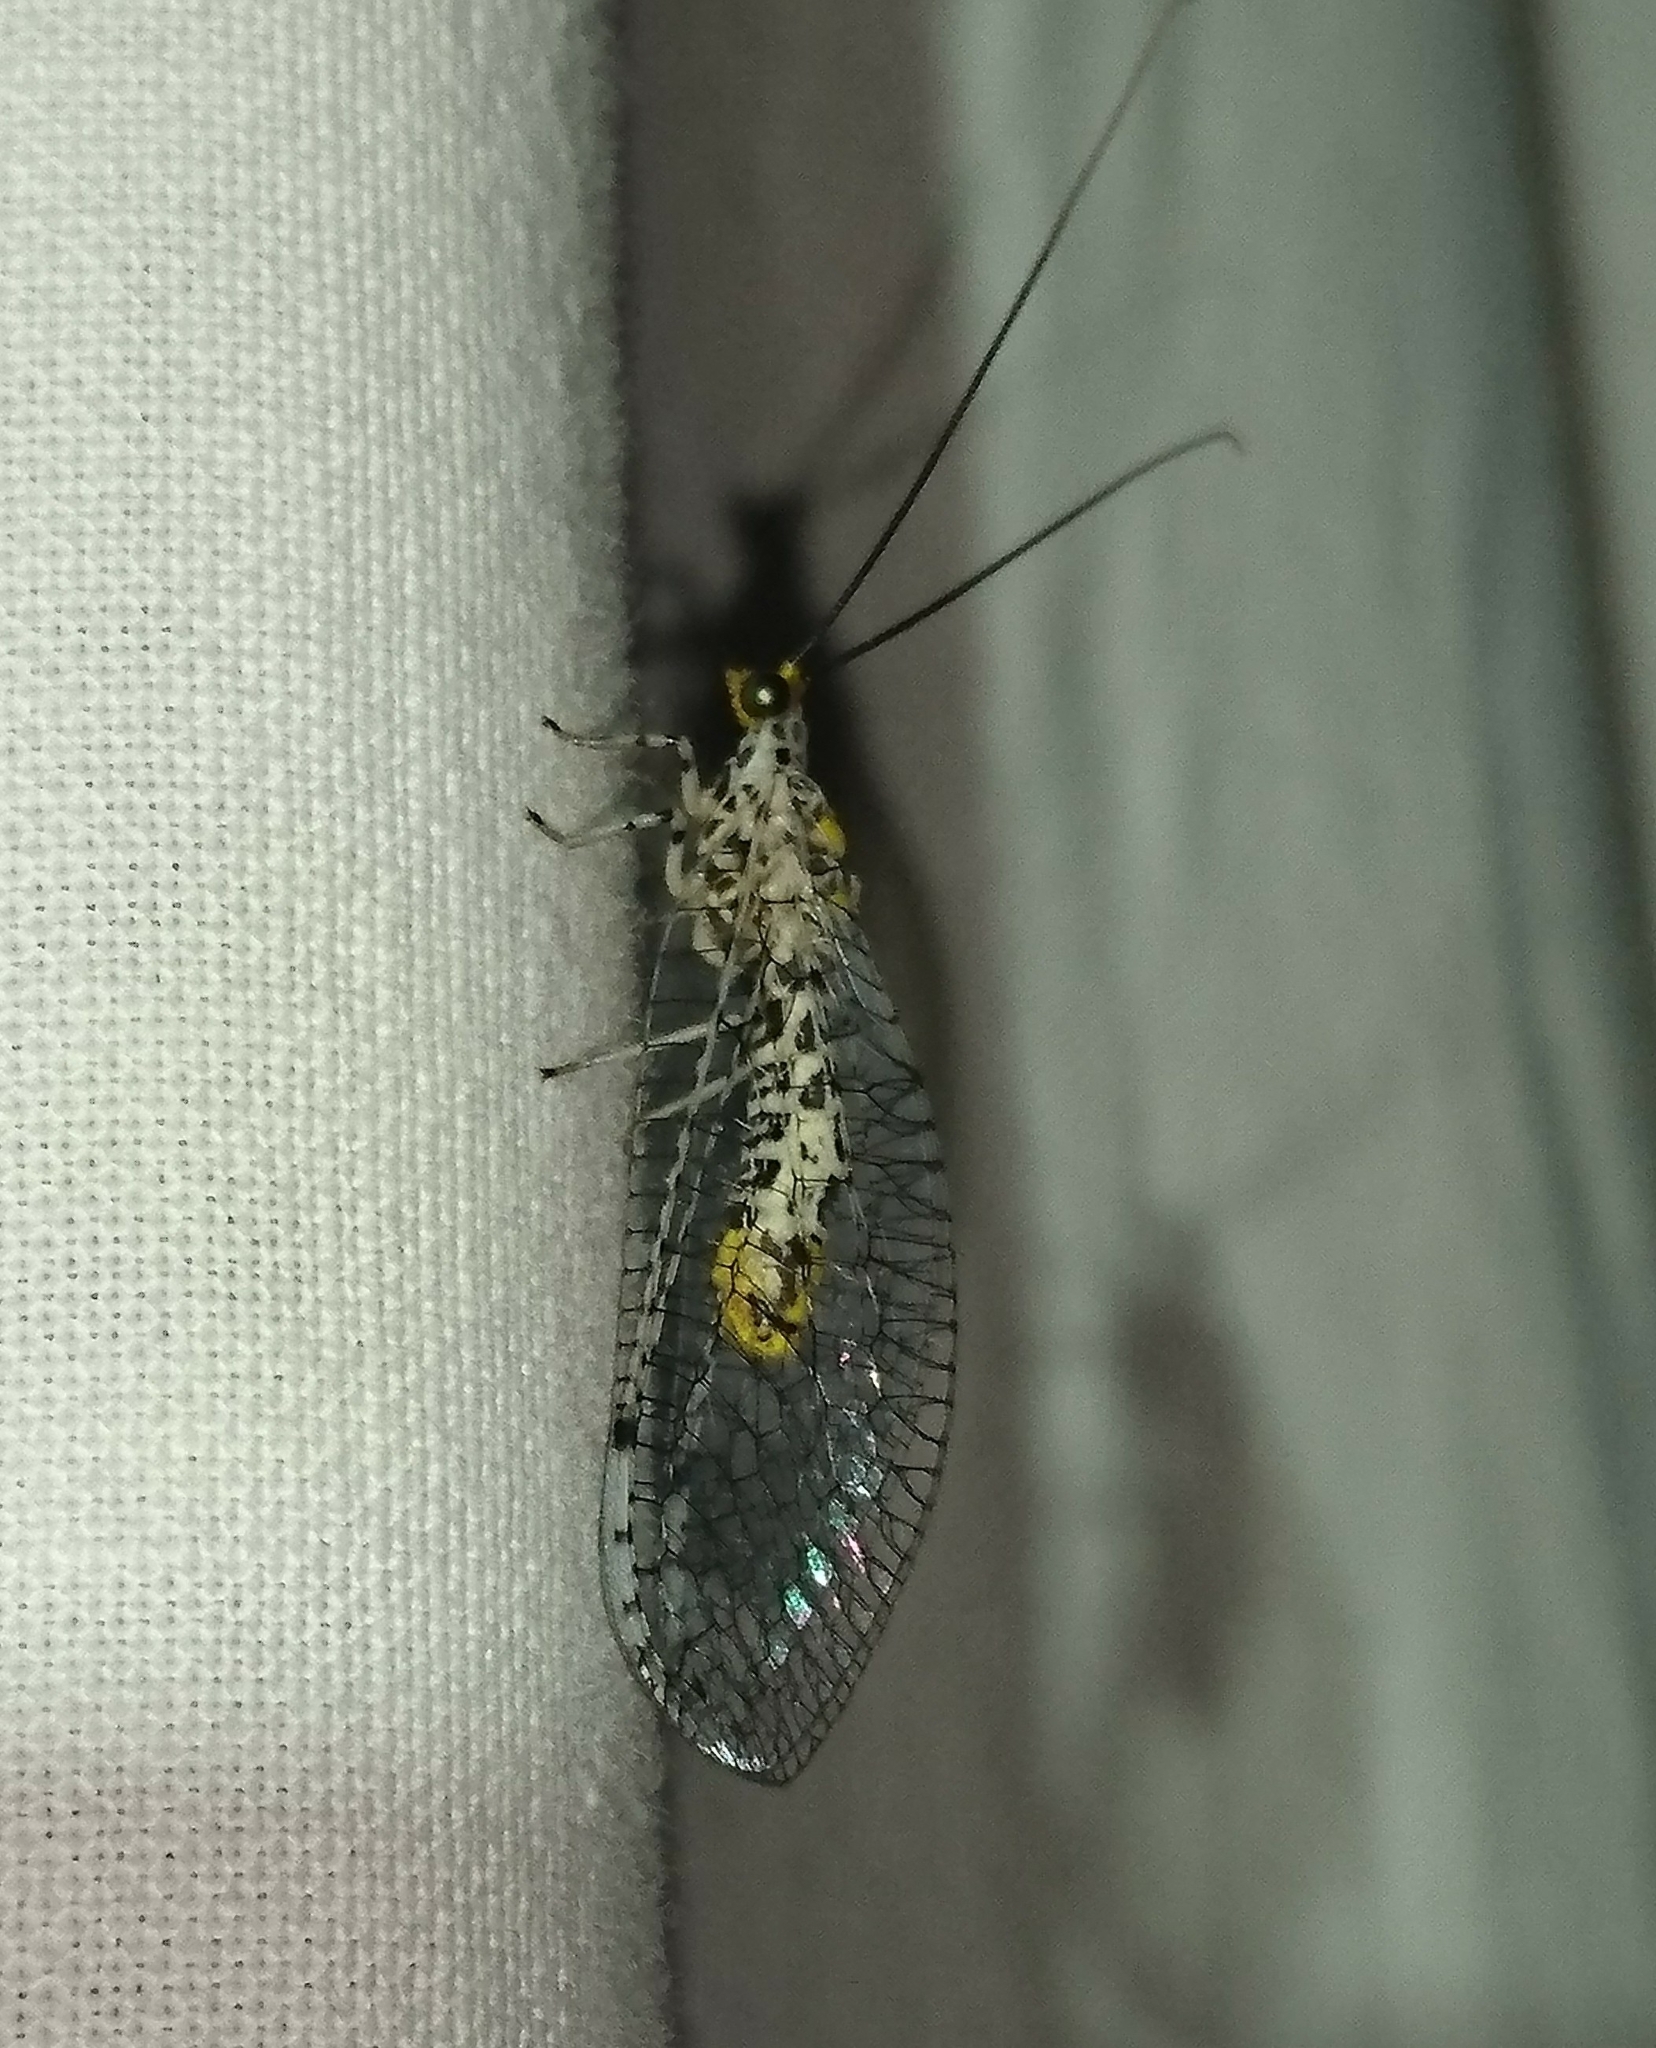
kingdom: Animalia
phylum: Arthropoda
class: Insecta
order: Neuroptera
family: Chrysopidae
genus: Abachrysa
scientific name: Abachrysa eureka
